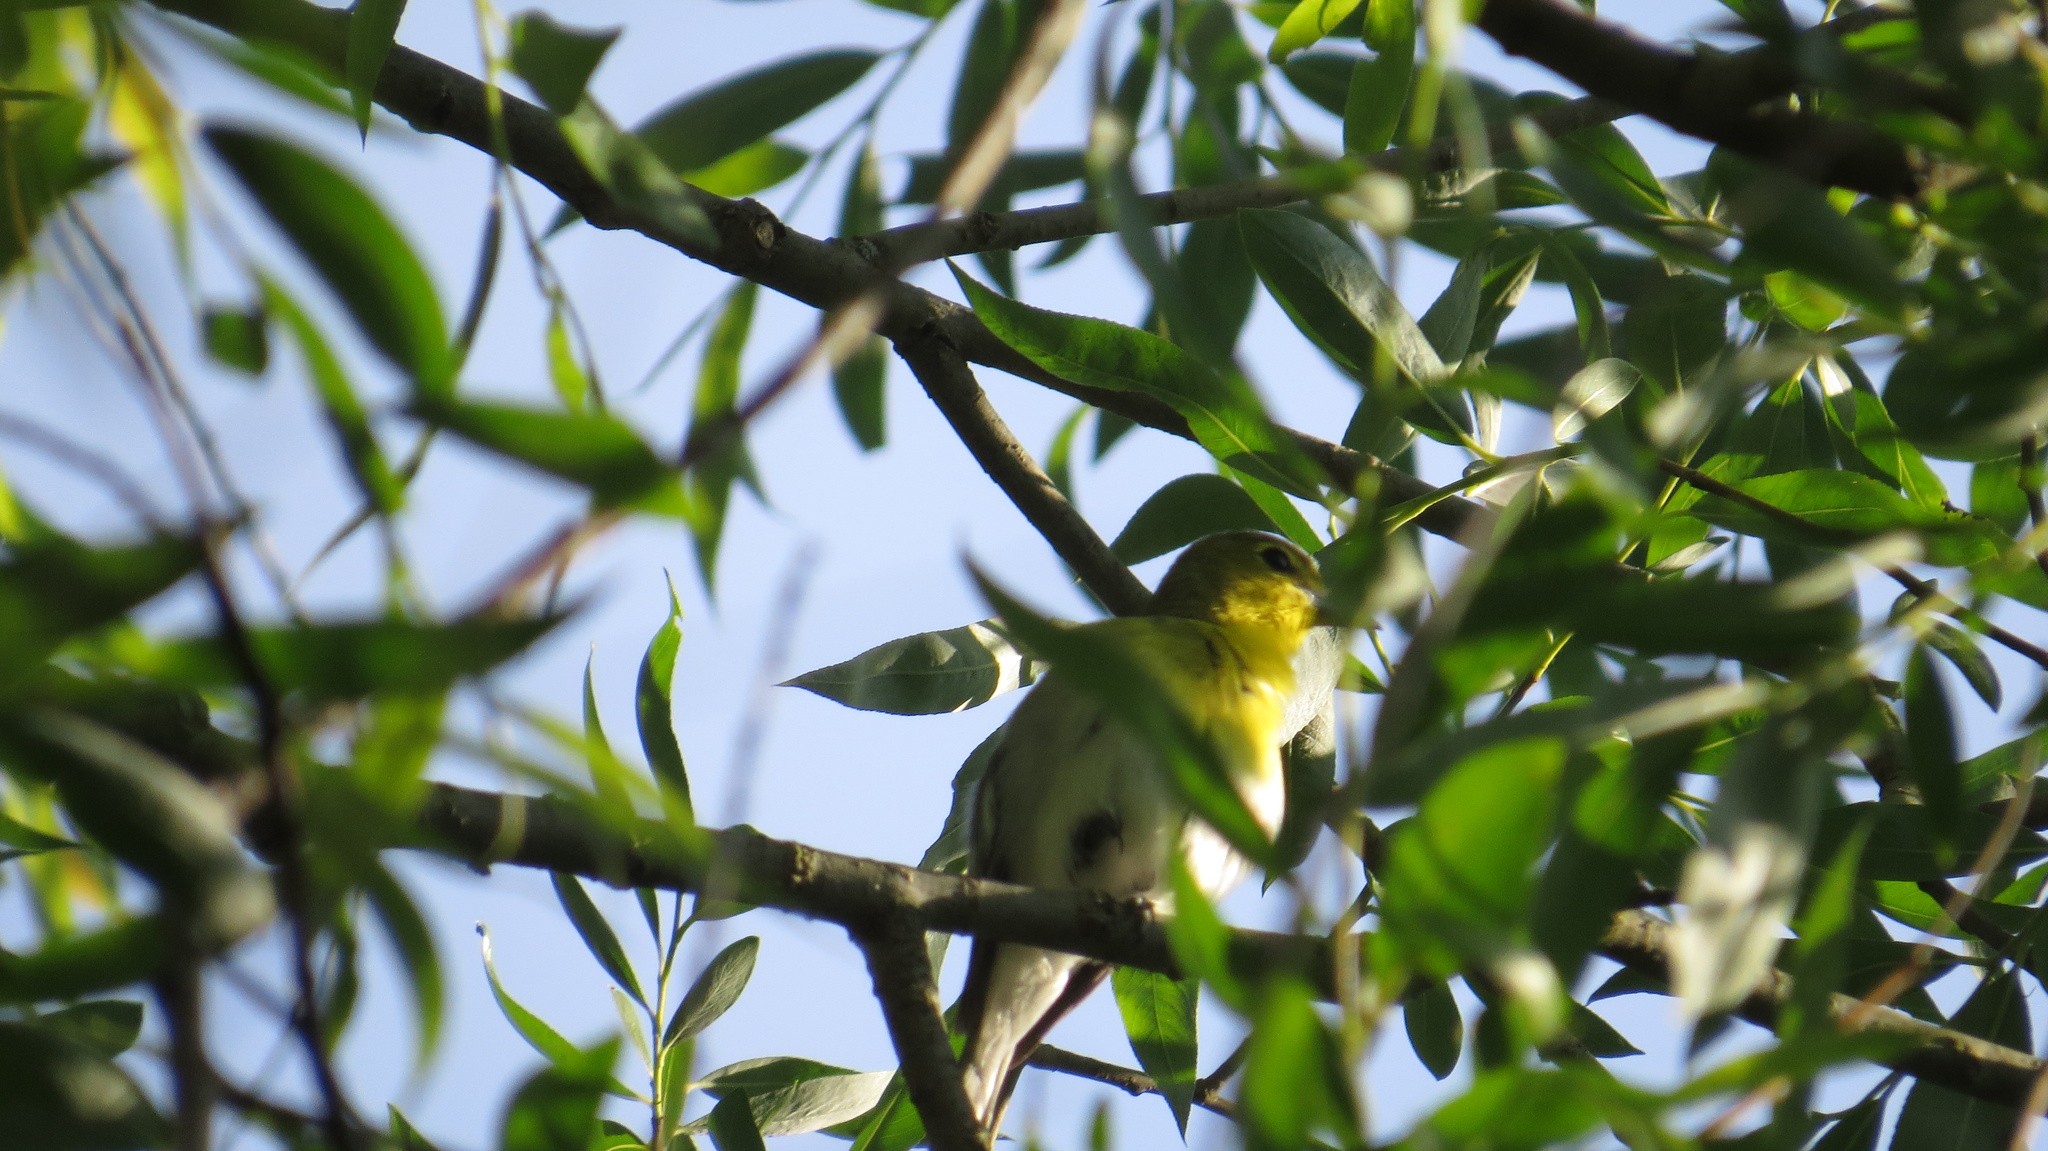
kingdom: Animalia
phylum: Chordata
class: Aves
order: Passeriformes
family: Vireonidae
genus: Vireo
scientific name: Vireo flavifrons
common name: Yellow-throated vireo
